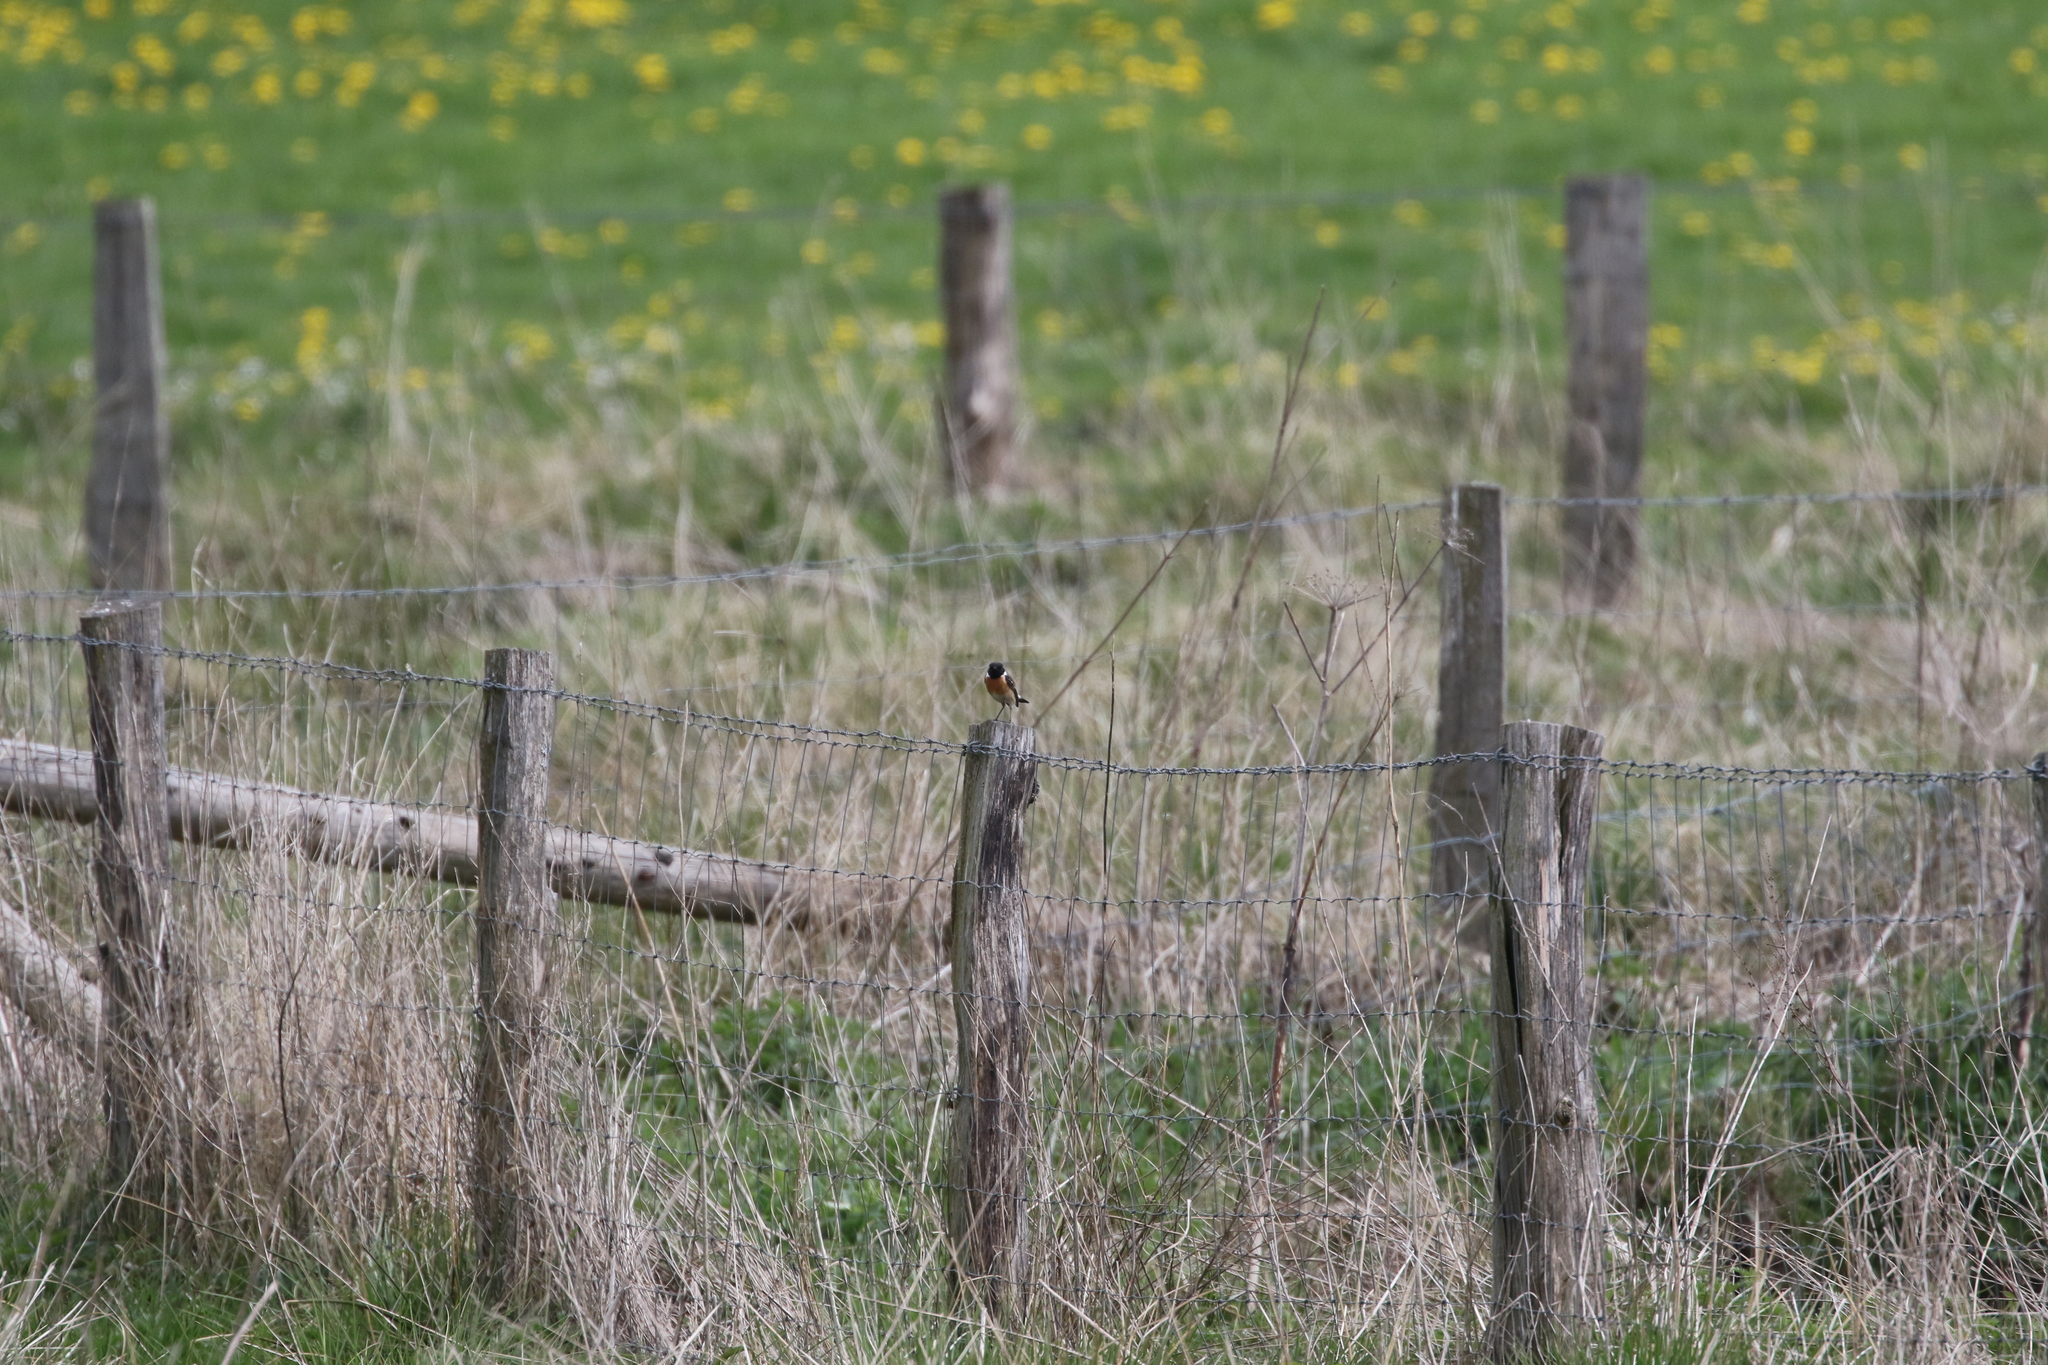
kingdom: Animalia
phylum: Chordata
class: Aves
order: Passeriformes
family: Muscicapidae
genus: Saxicola
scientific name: Saxicola rubicola
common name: European stonechat
